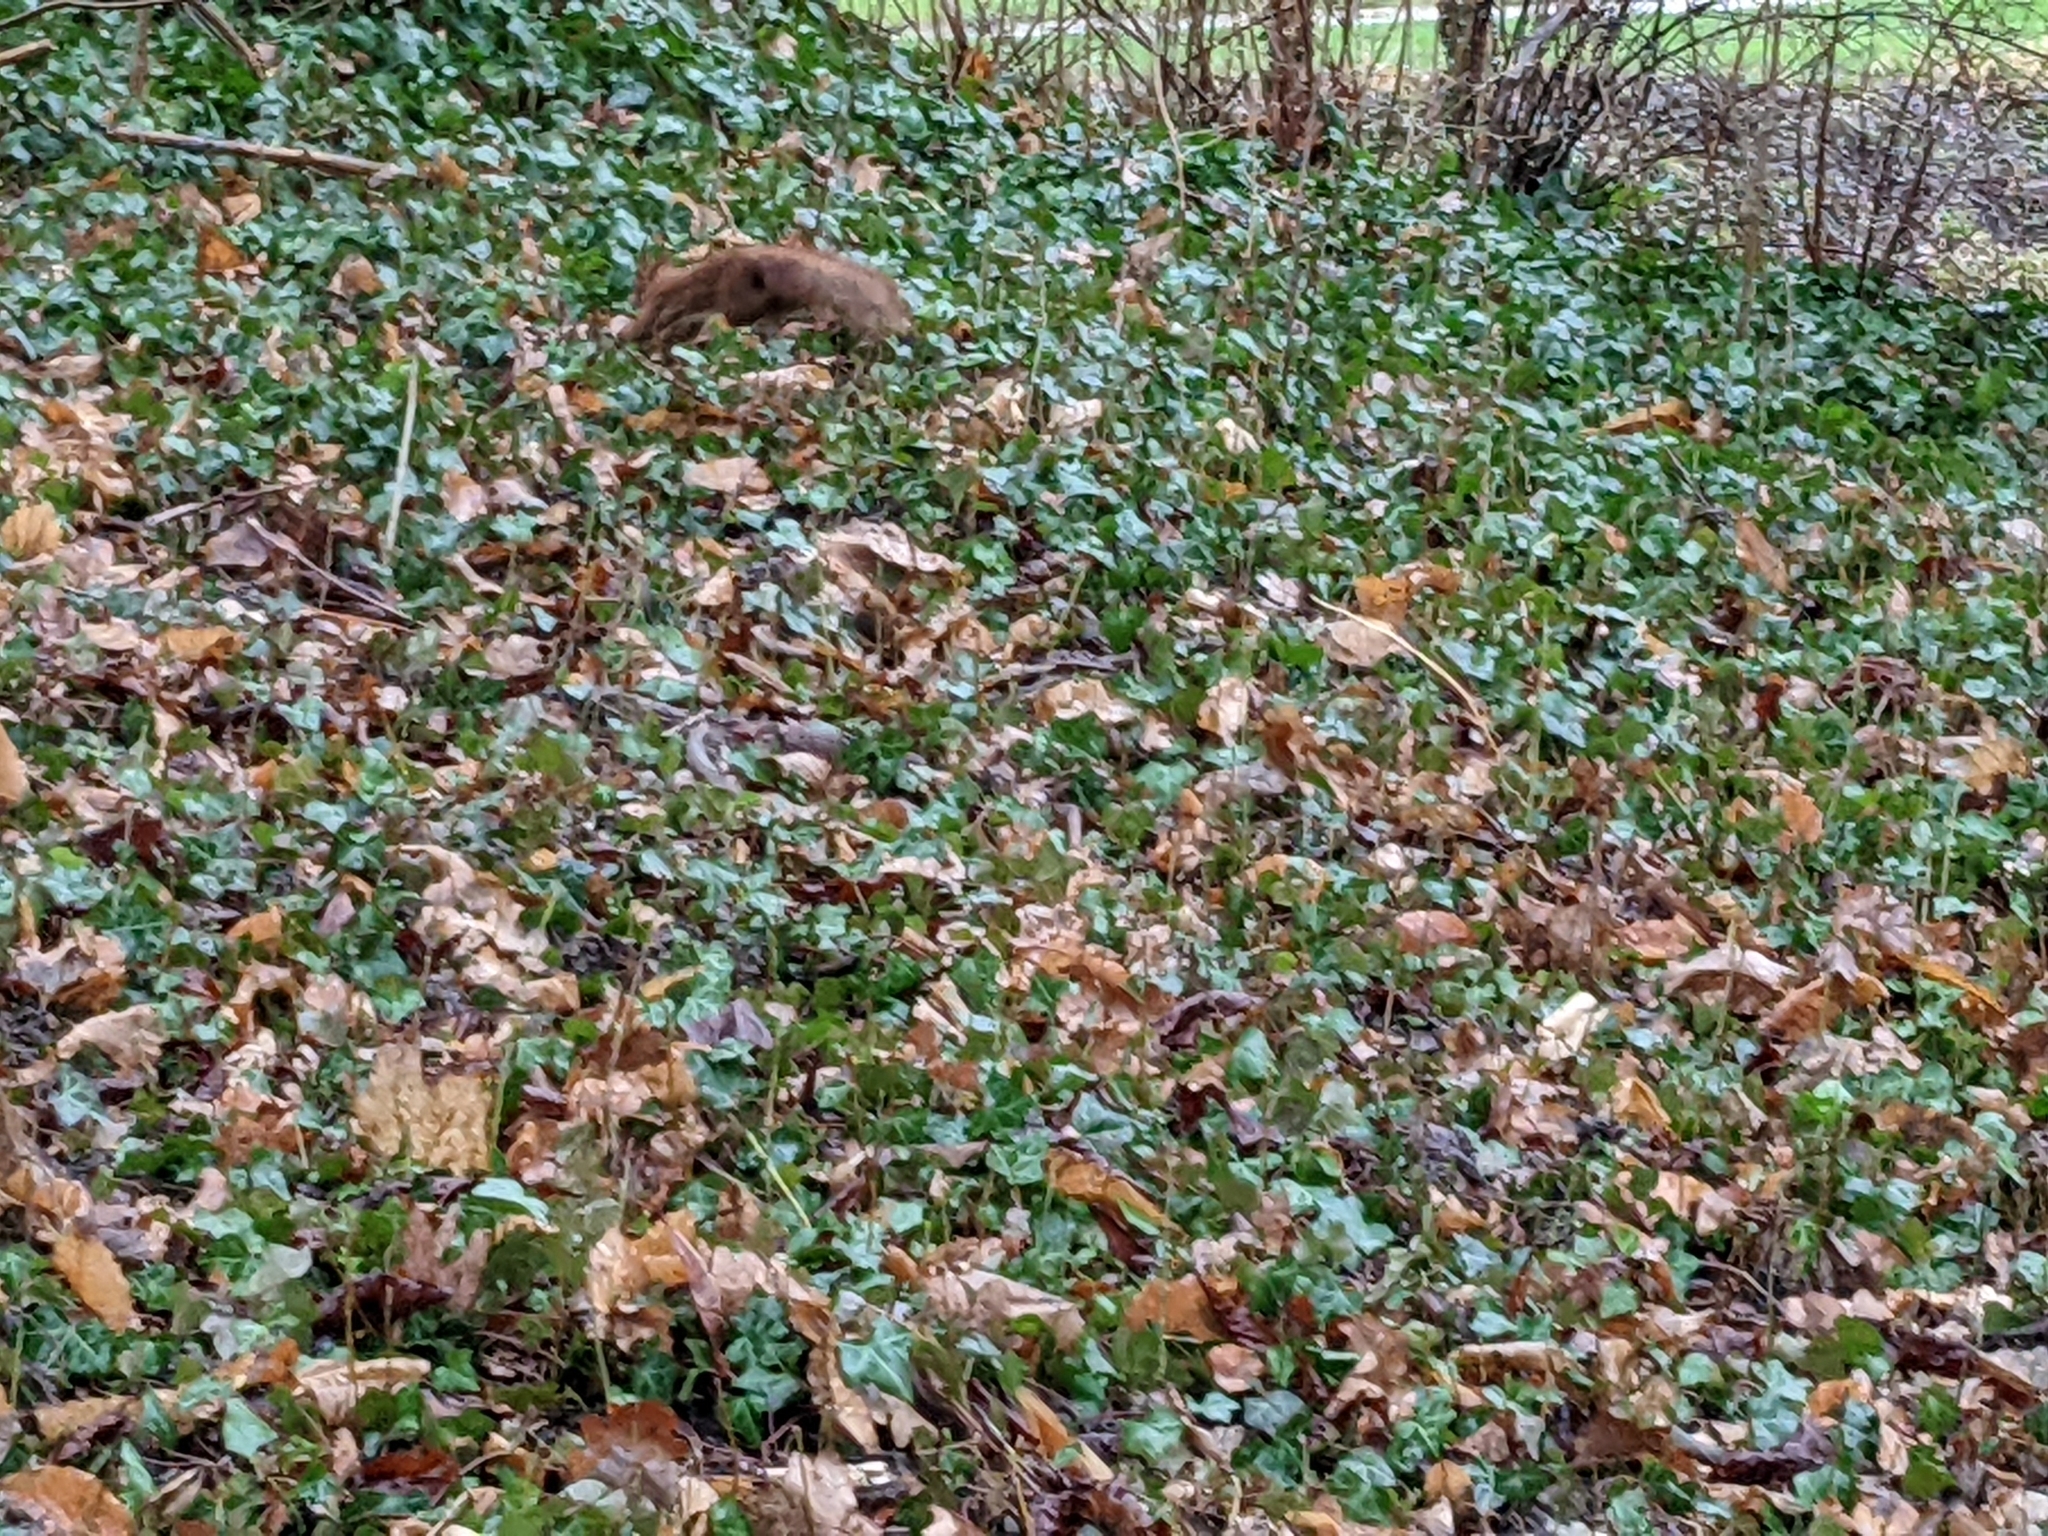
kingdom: Animalia
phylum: Chordata
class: Mammalia
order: Rodentia
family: Sciuridae
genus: Sciurus
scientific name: Sciurus vulgaris
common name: Eurasian red squirrel
